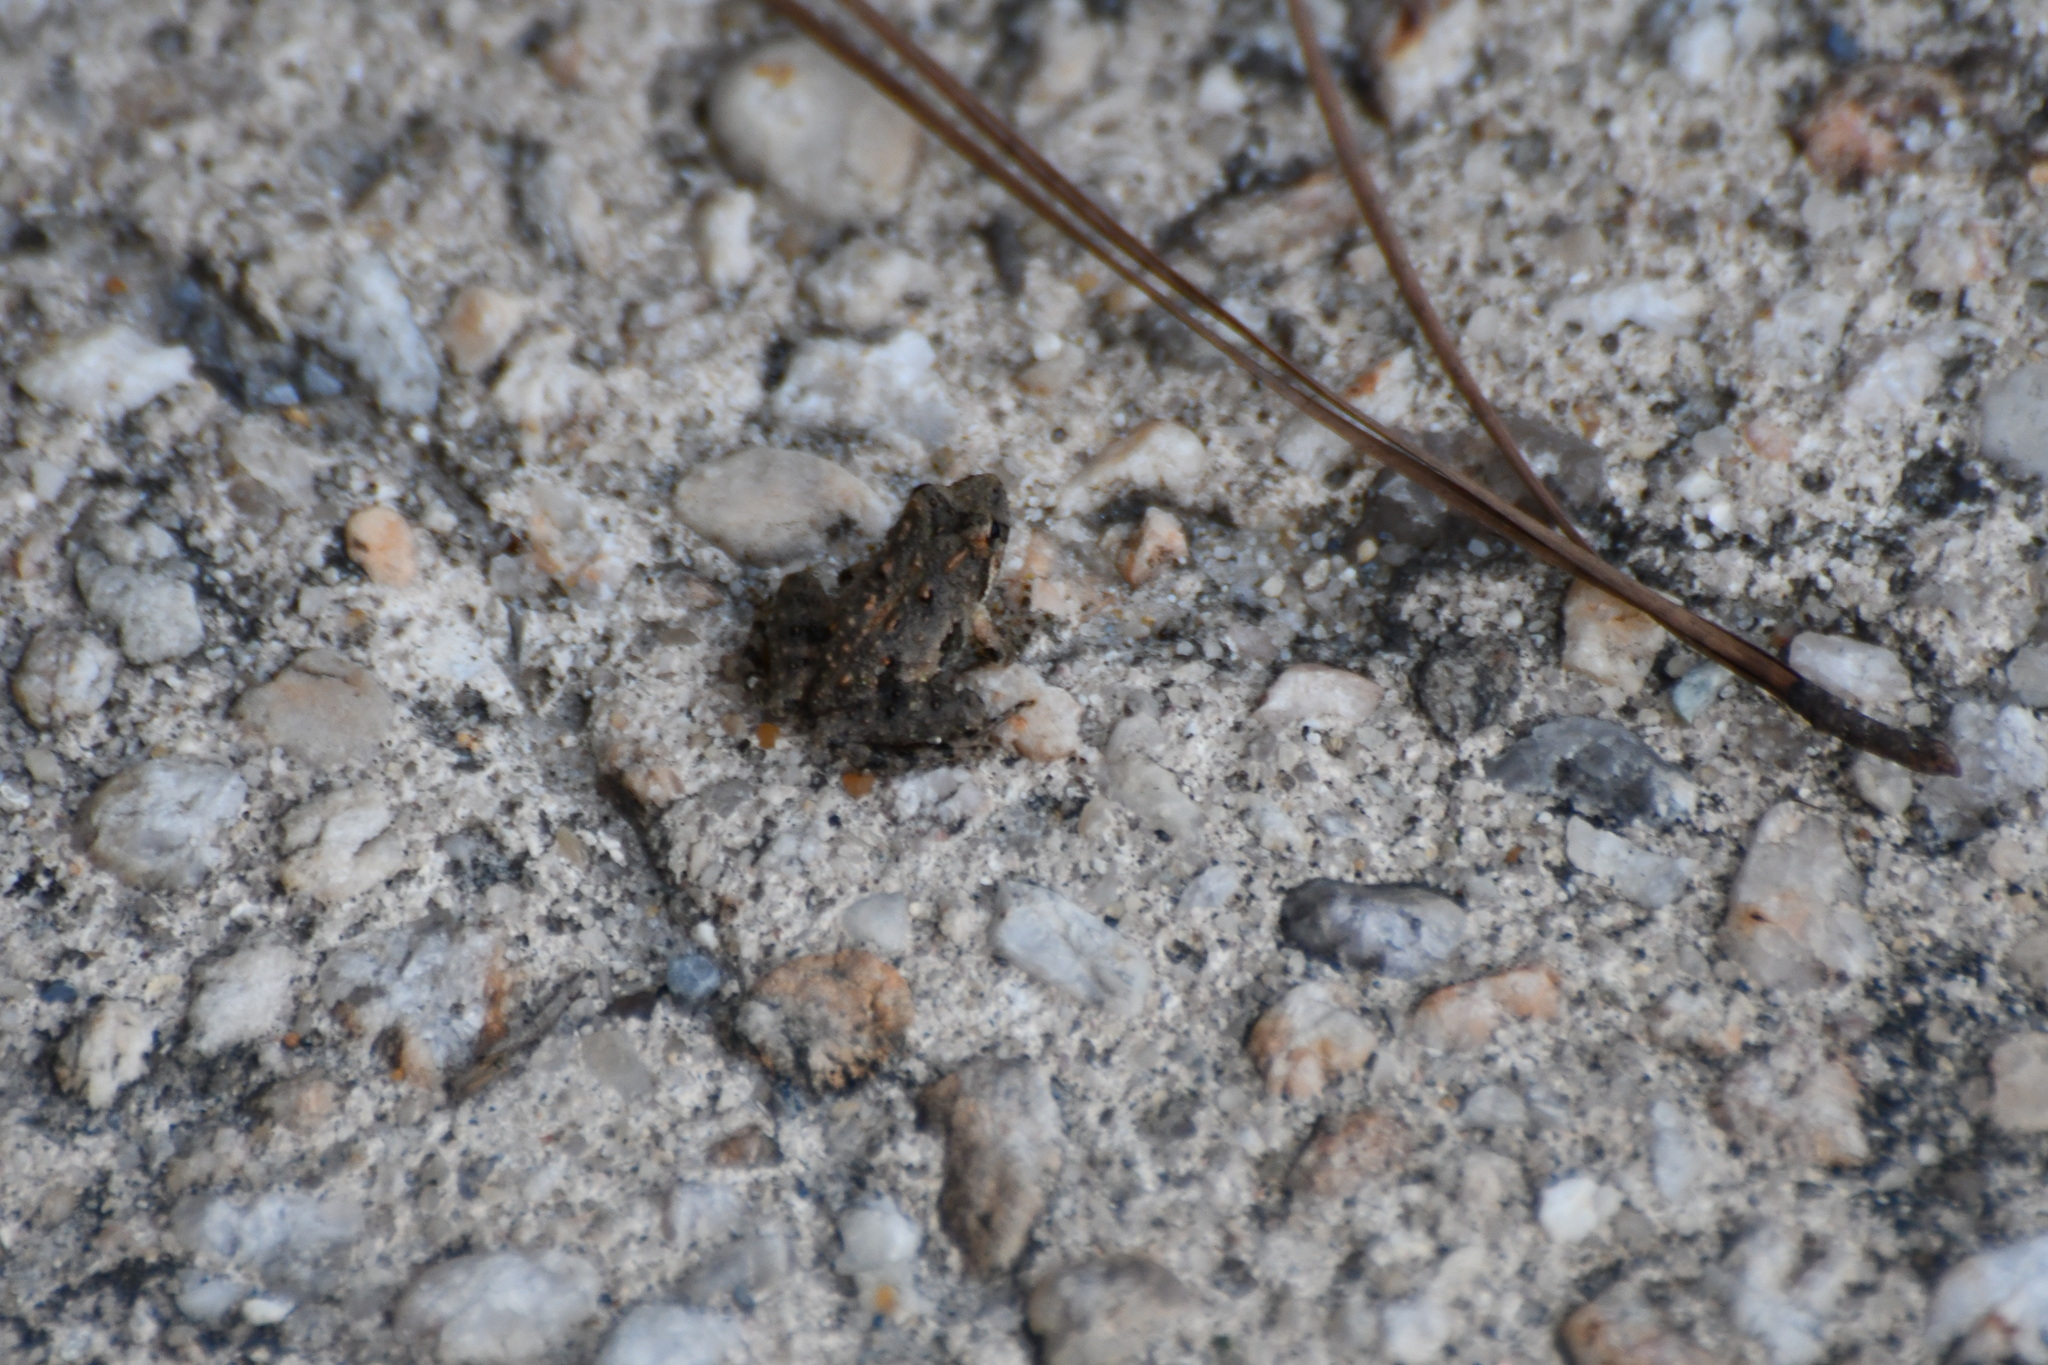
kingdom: Animalia
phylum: Chordata
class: Amphibia
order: Anura
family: Hylidae
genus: Acris
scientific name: Acris crepitans
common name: Northern cricket frog
